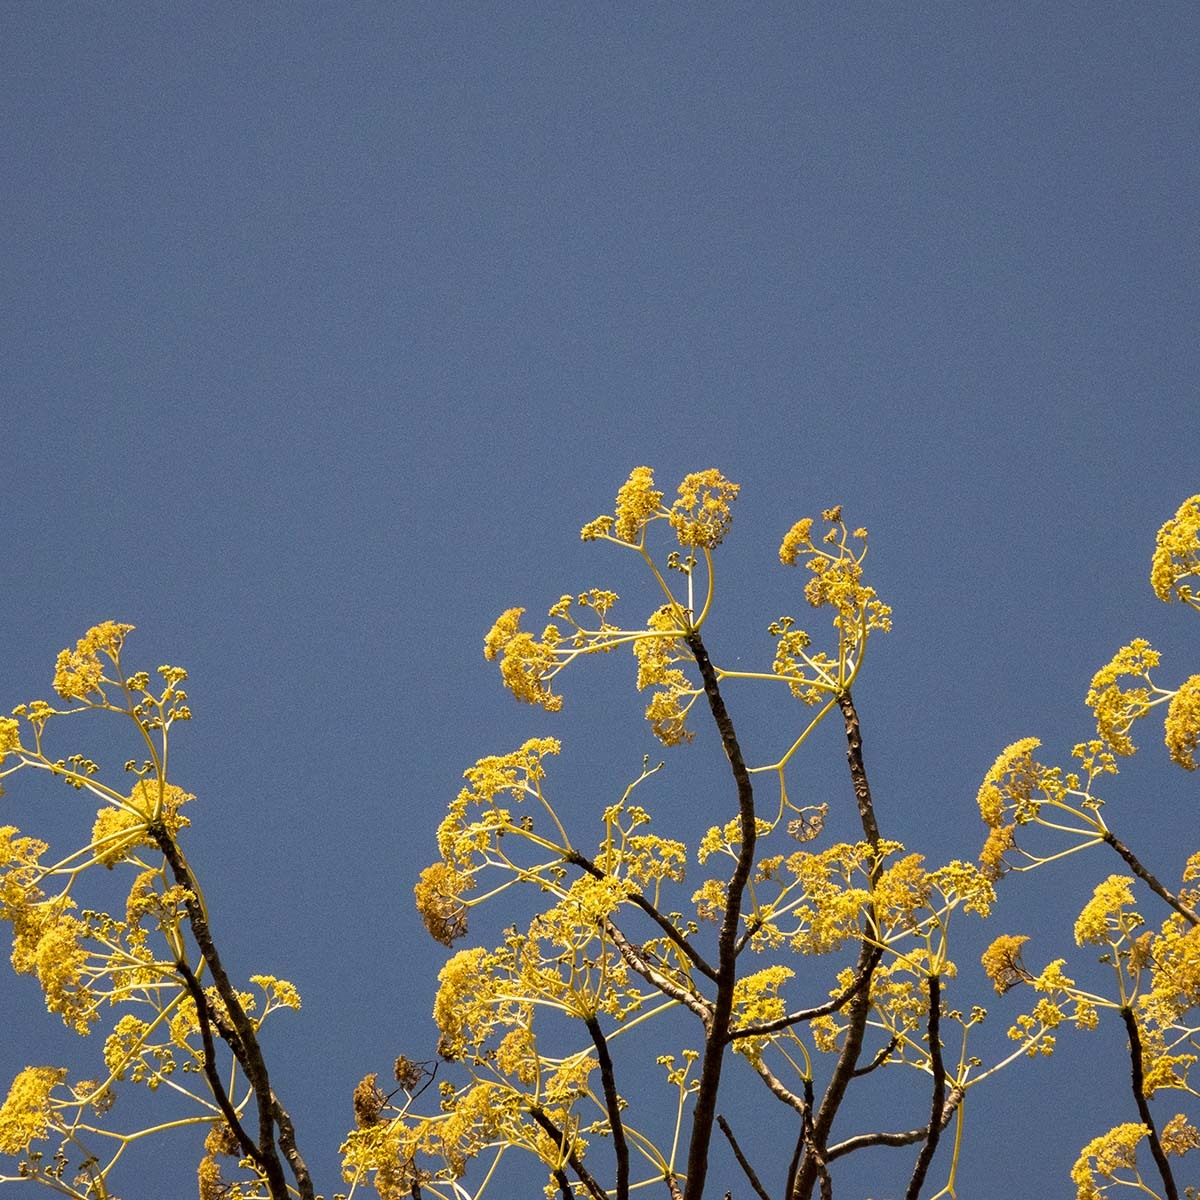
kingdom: Plantae
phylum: Tracheophyta
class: Magnoliopsida
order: Laurales
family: Hernandiaceae
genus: Gyrocarpus
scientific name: Gyrocarpus americanus
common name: Gyro damson
